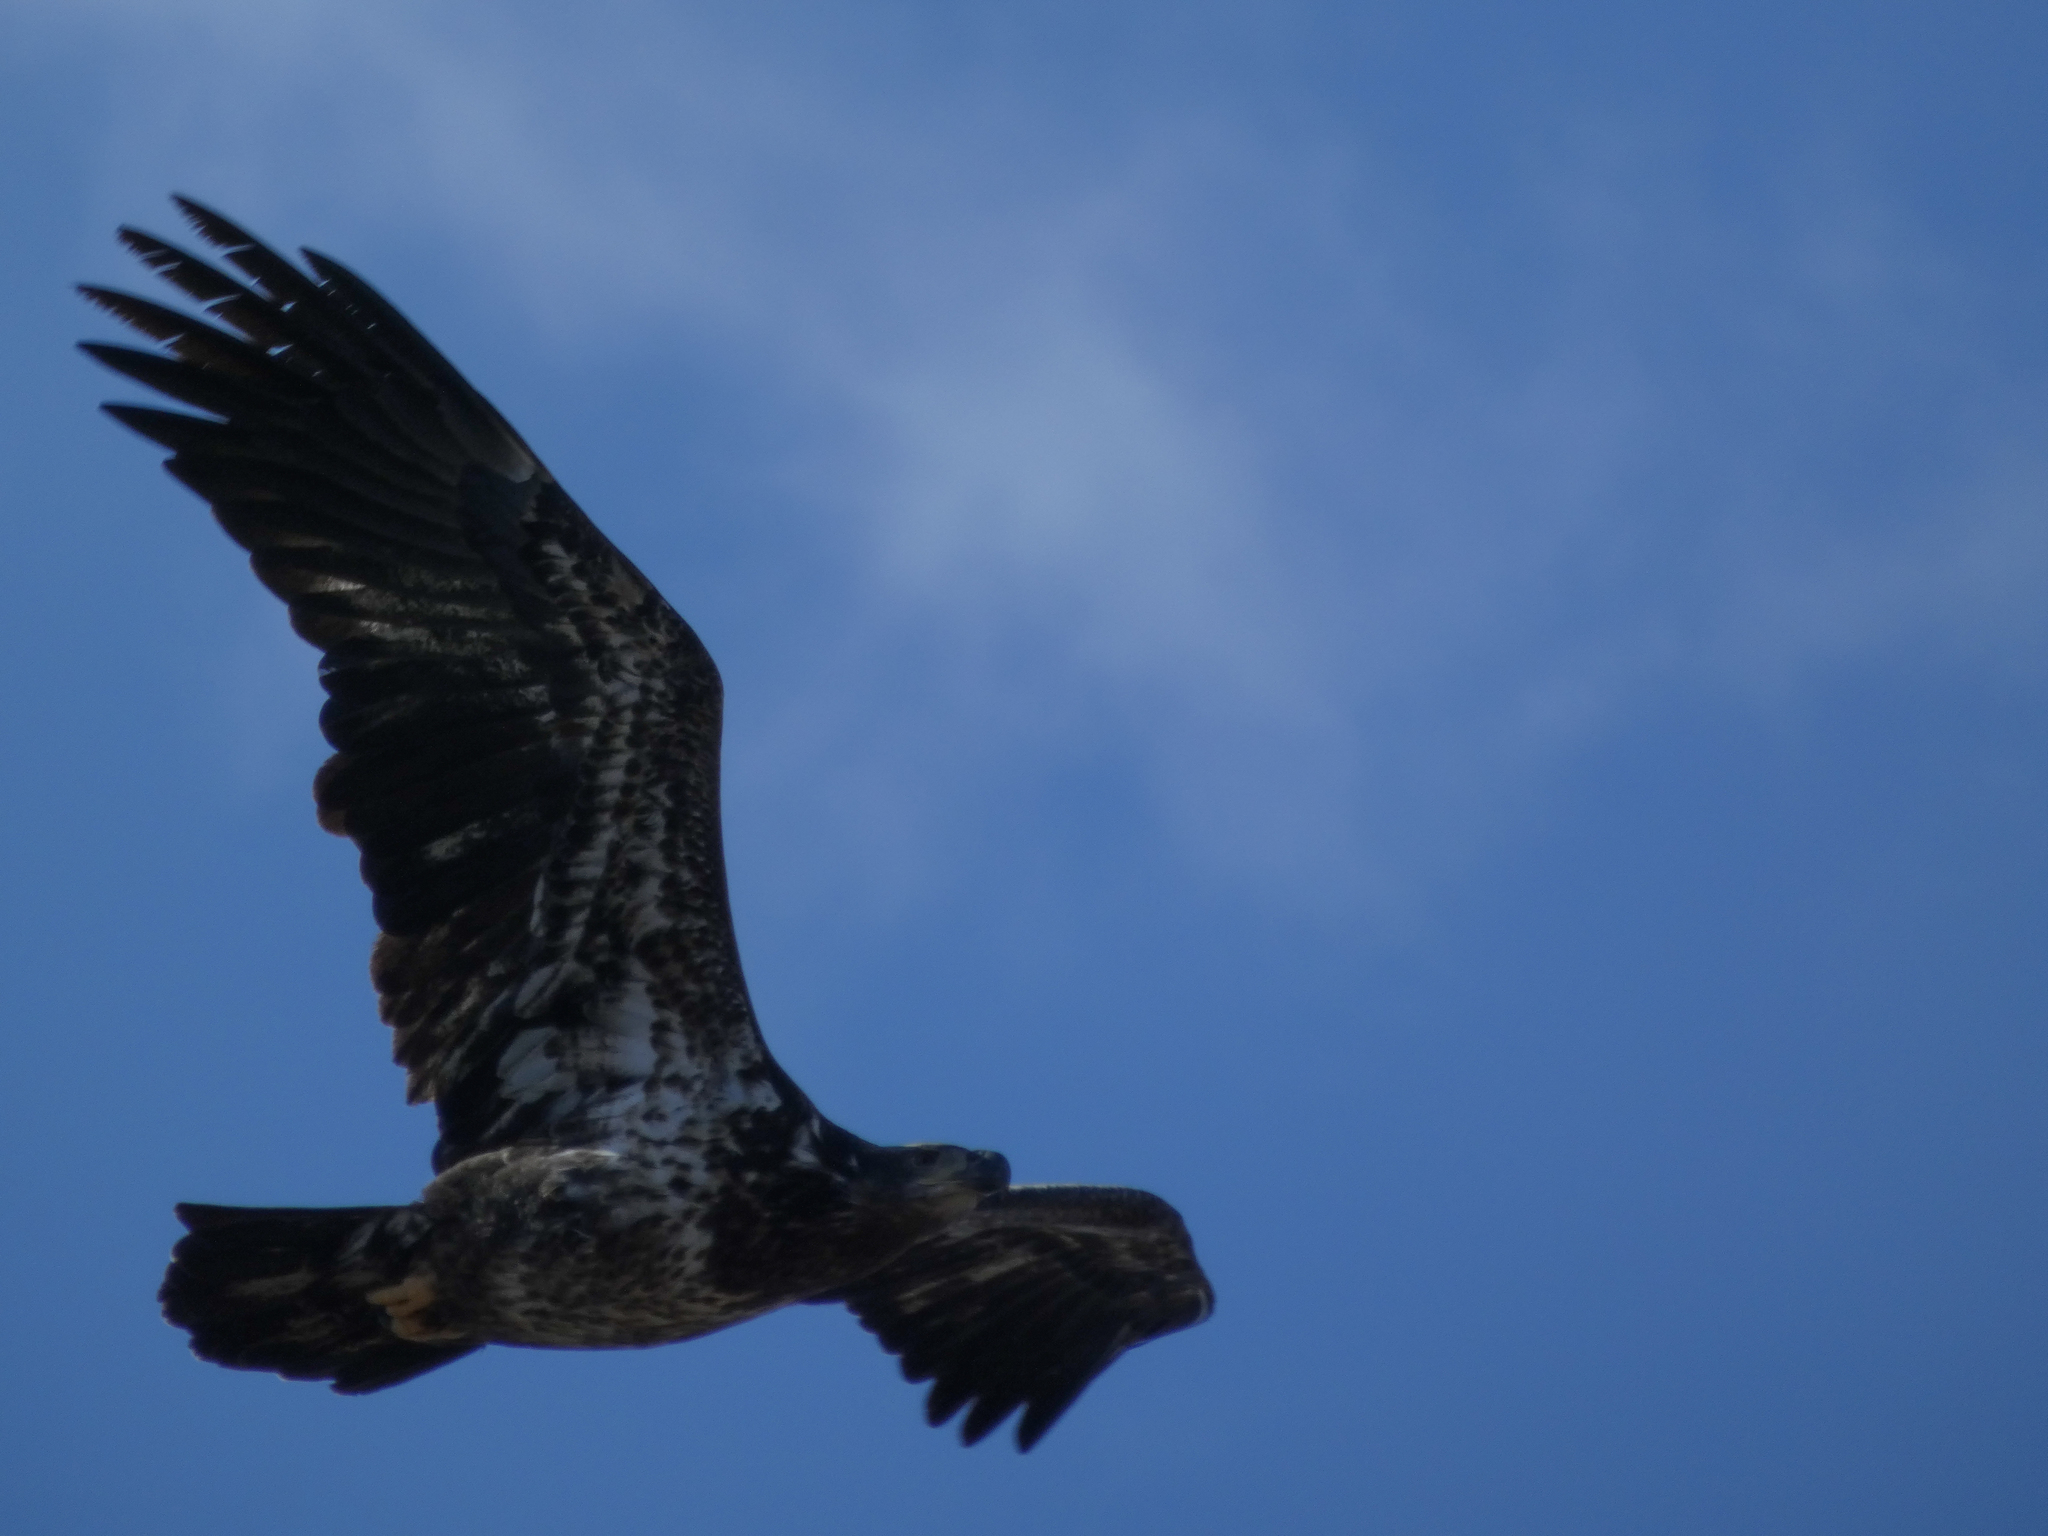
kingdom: Animalia
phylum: Chordata
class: Aves
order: Accipitriformes
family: Accipitridae
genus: Haliaeetus
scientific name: Haliaeetus leucocephalus
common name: Bald eagle
